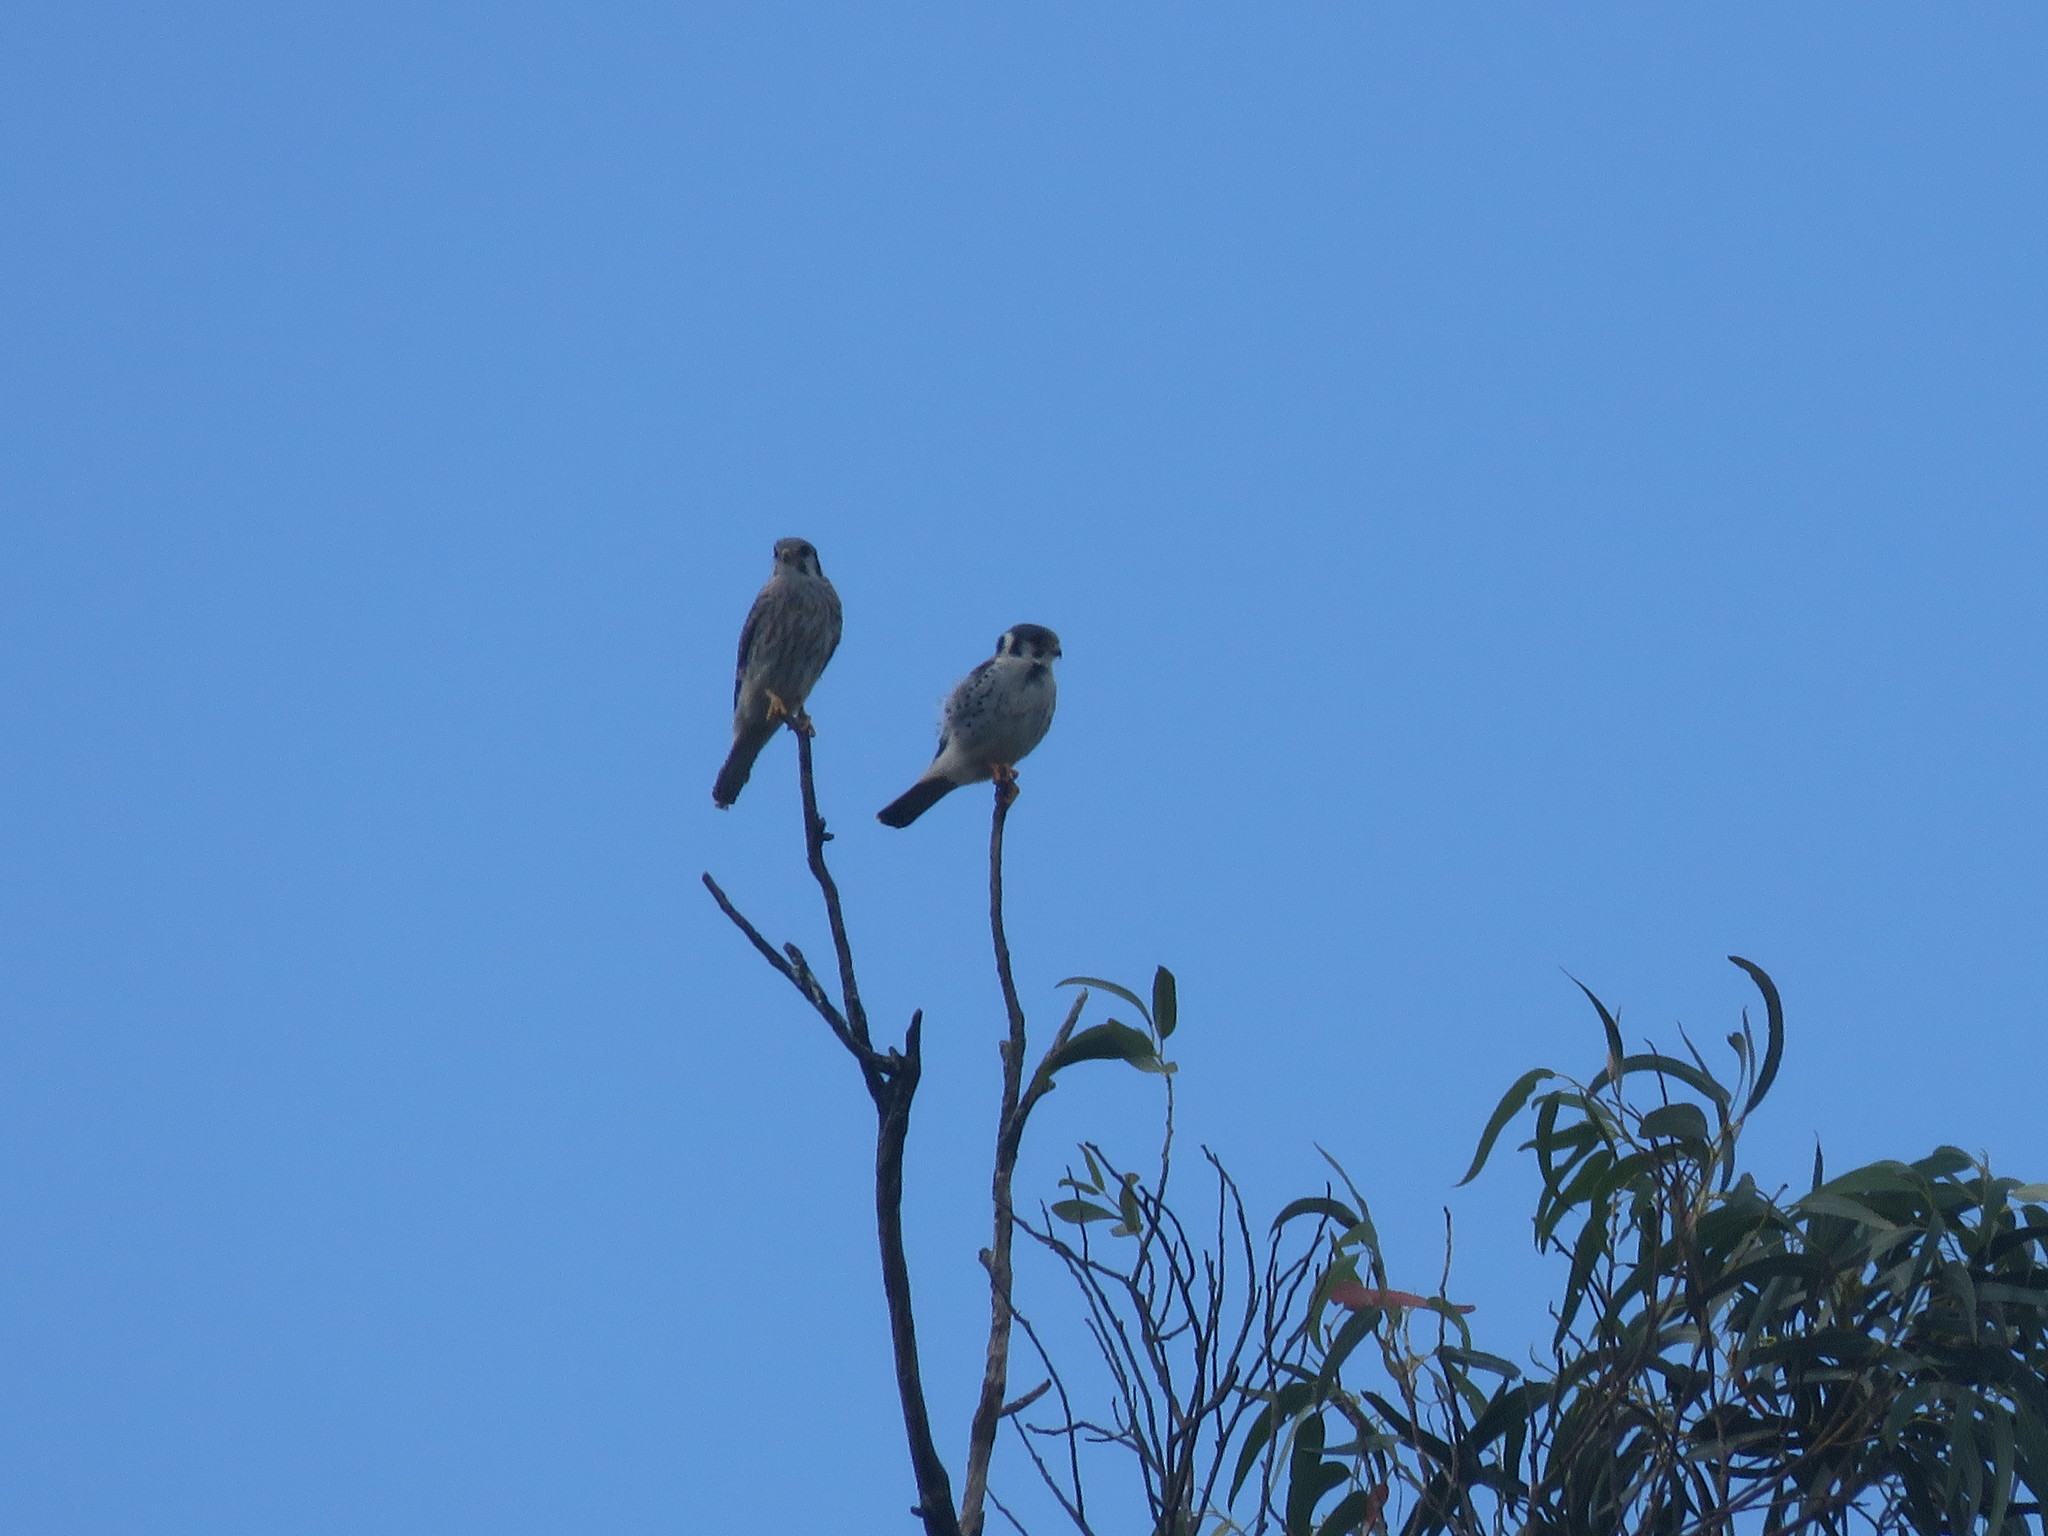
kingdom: Animalia
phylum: Chordata
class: Aves
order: Falconiformes
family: Falconidae
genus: Falco
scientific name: Falco sparverius
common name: American kestrel
